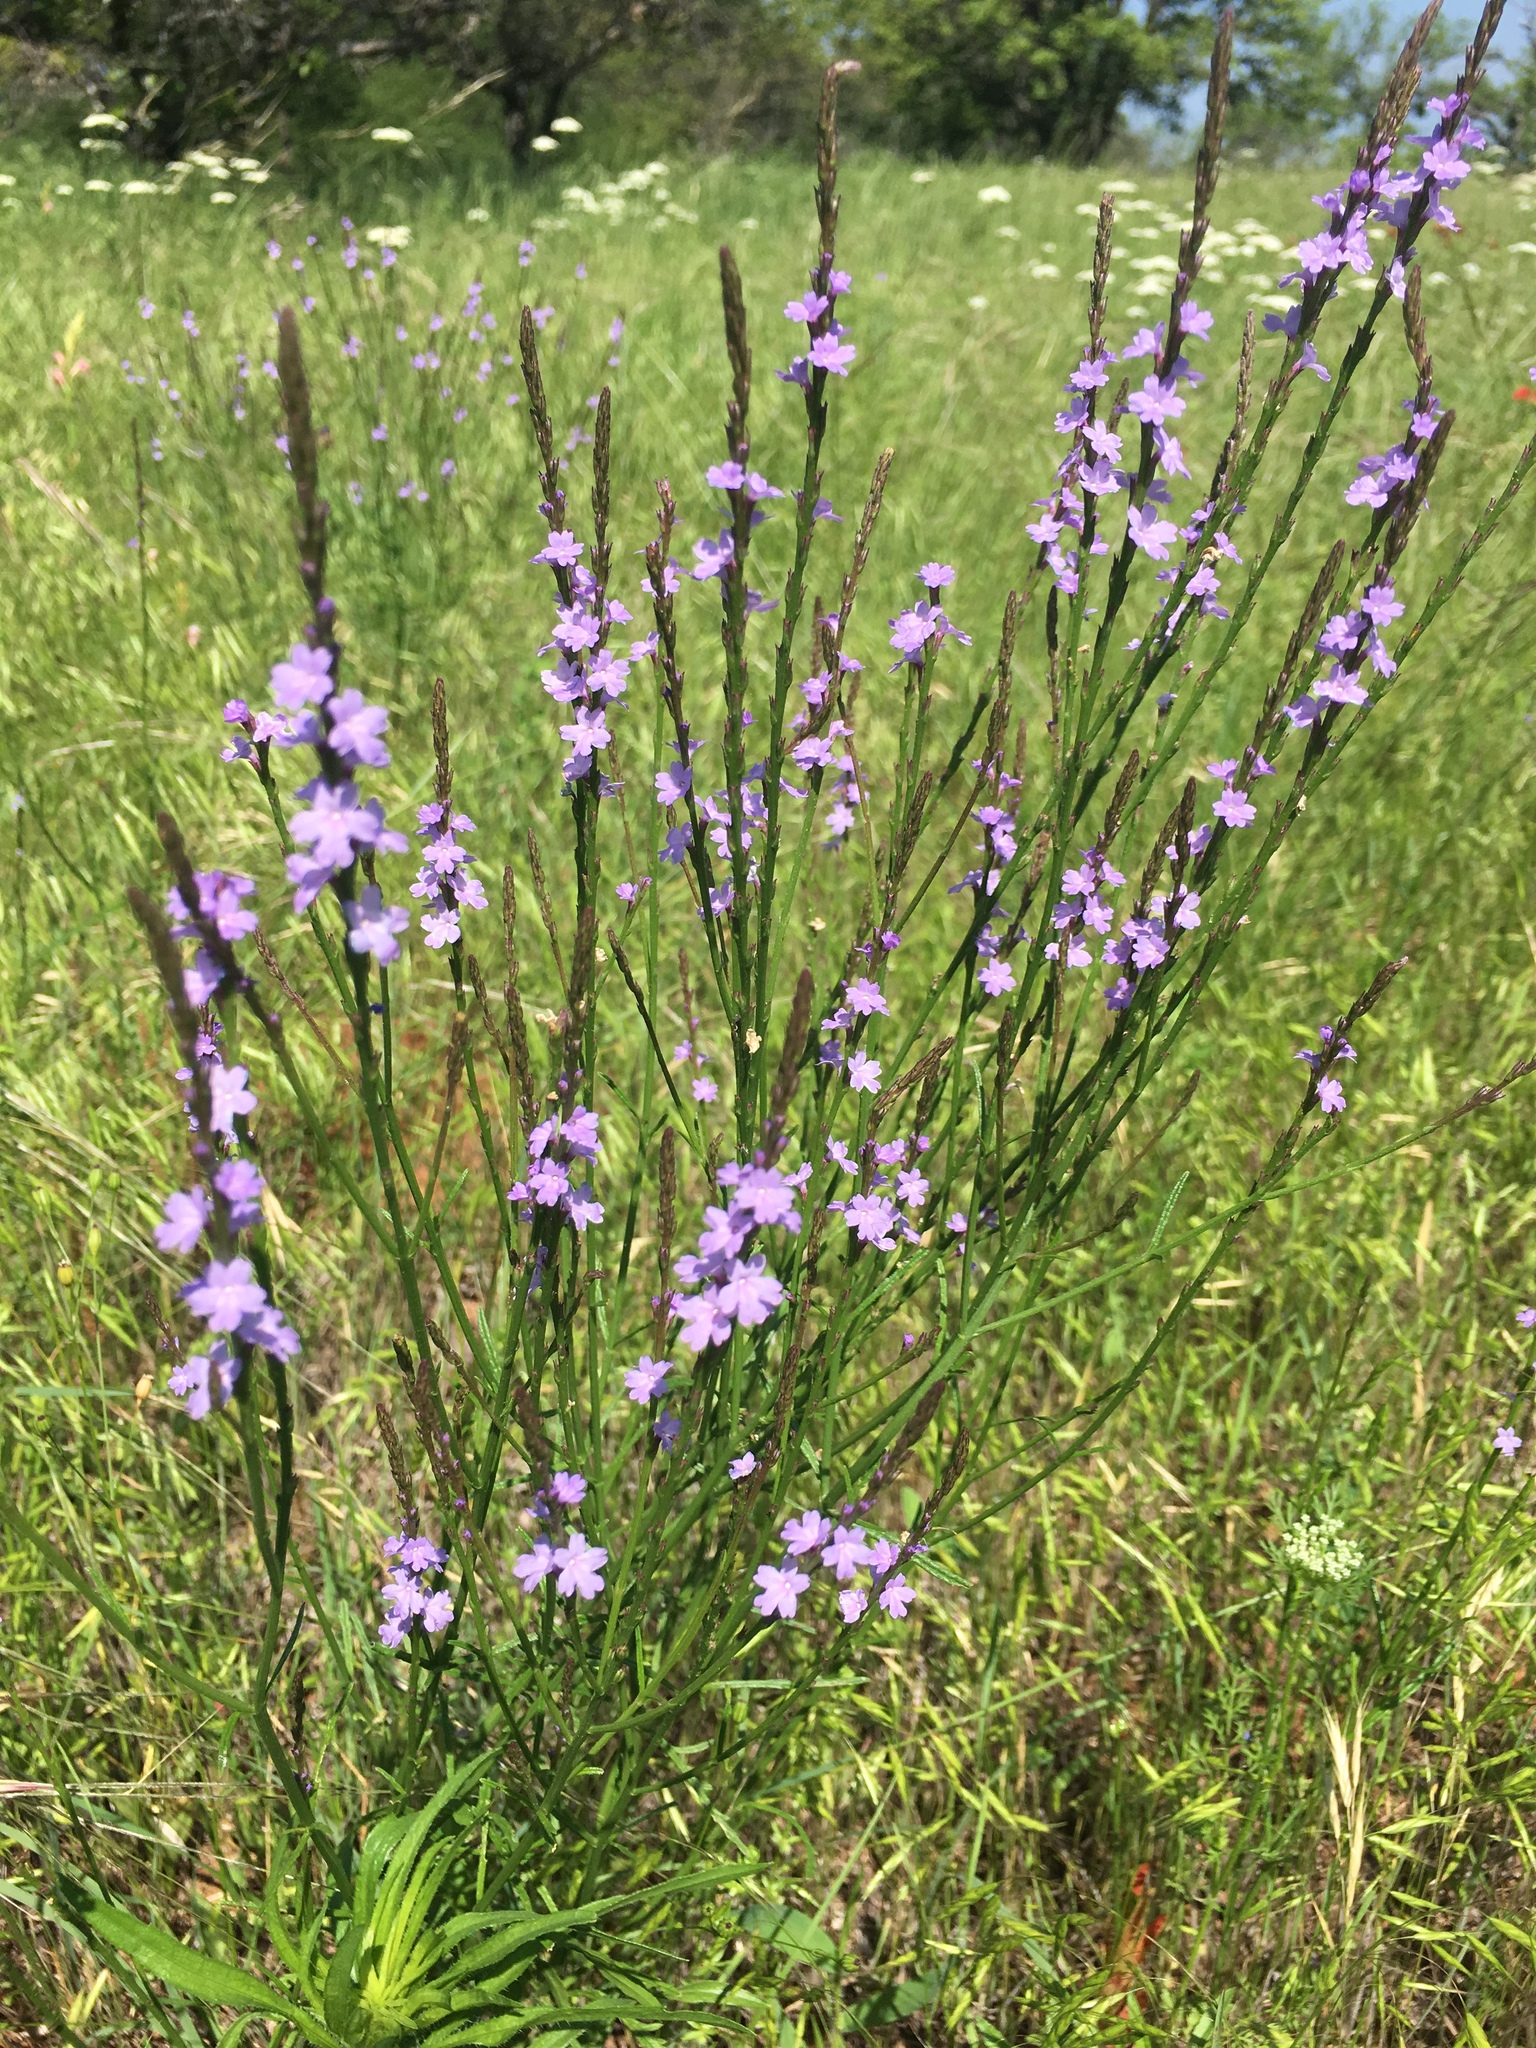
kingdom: Plantae
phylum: Tracheophyta
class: Magnoliopsida
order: Lamiales
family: Verbenaceae
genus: Verbena
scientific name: Verbena halei
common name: Texas vervain
